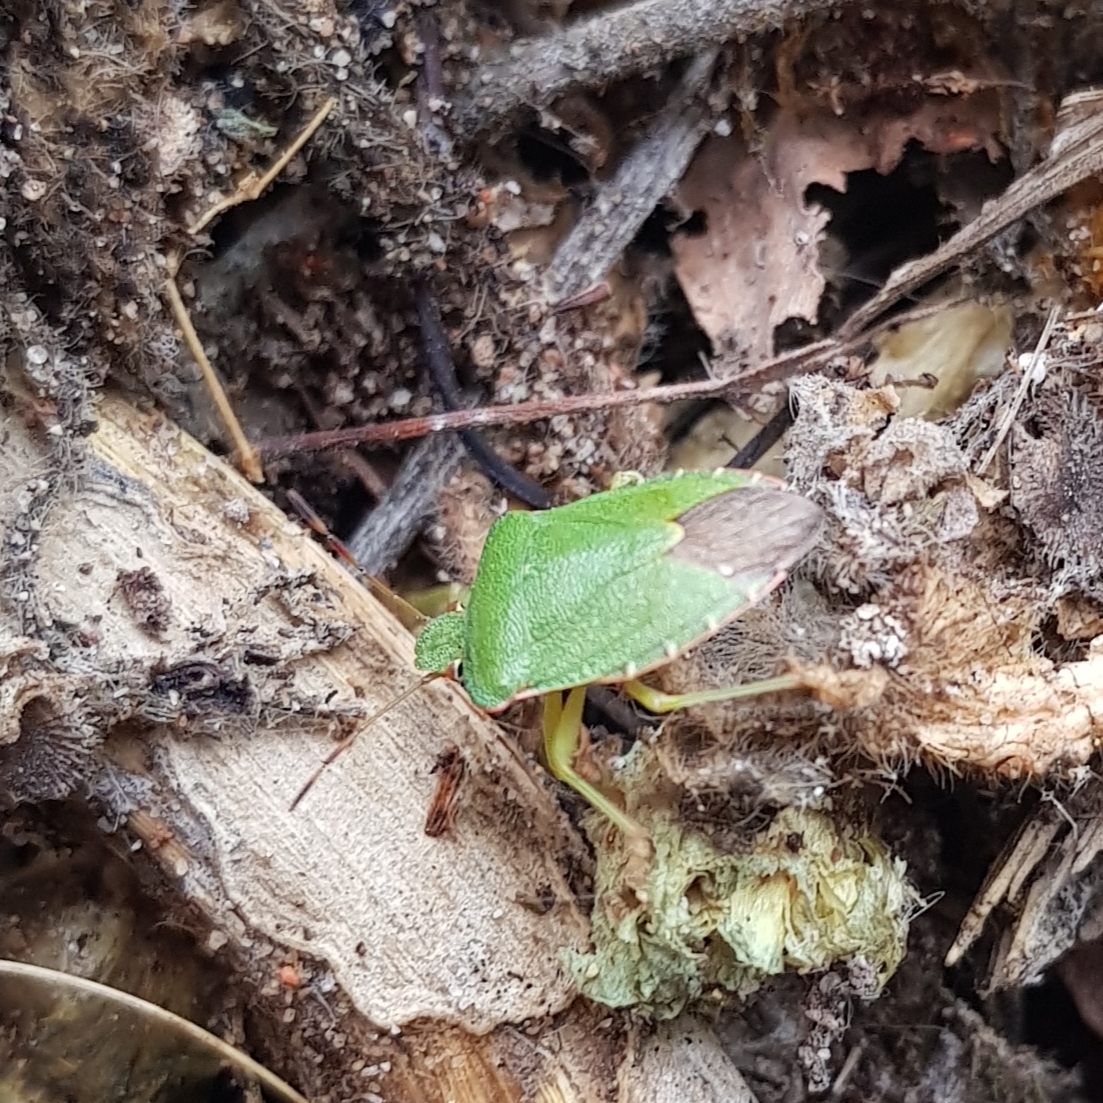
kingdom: Animalia
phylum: Arthropoda
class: Insecta
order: Hemiptera
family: Pentatomidae
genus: Palomena
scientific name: Palomena prasina
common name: Green shieldbug
